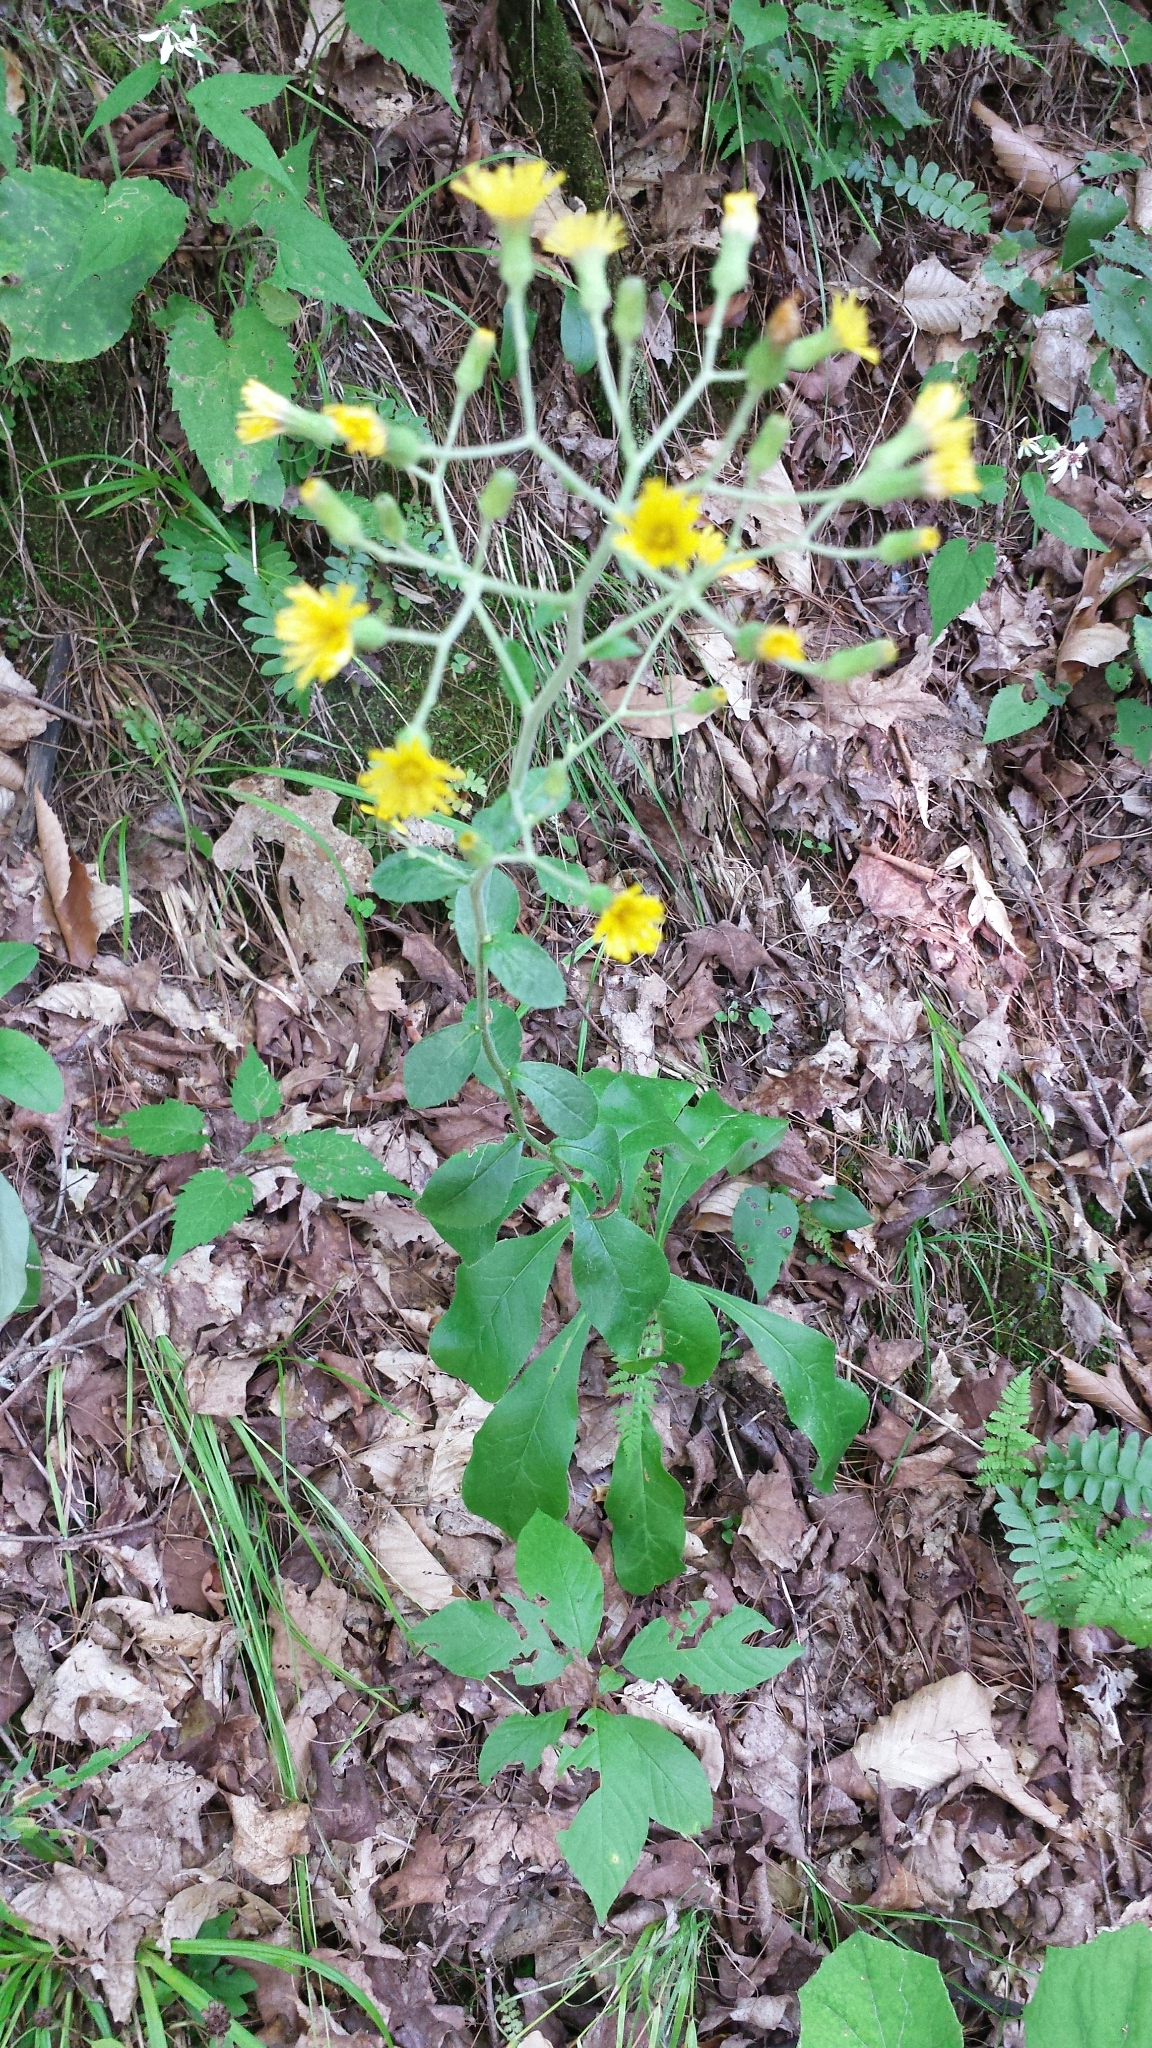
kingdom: Plantae
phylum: Tracheophyta
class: Magnoliopsida
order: Asterales
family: Asteraceae
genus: Hieracium
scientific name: Hieracium scabrum
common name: Rough hawkweed
